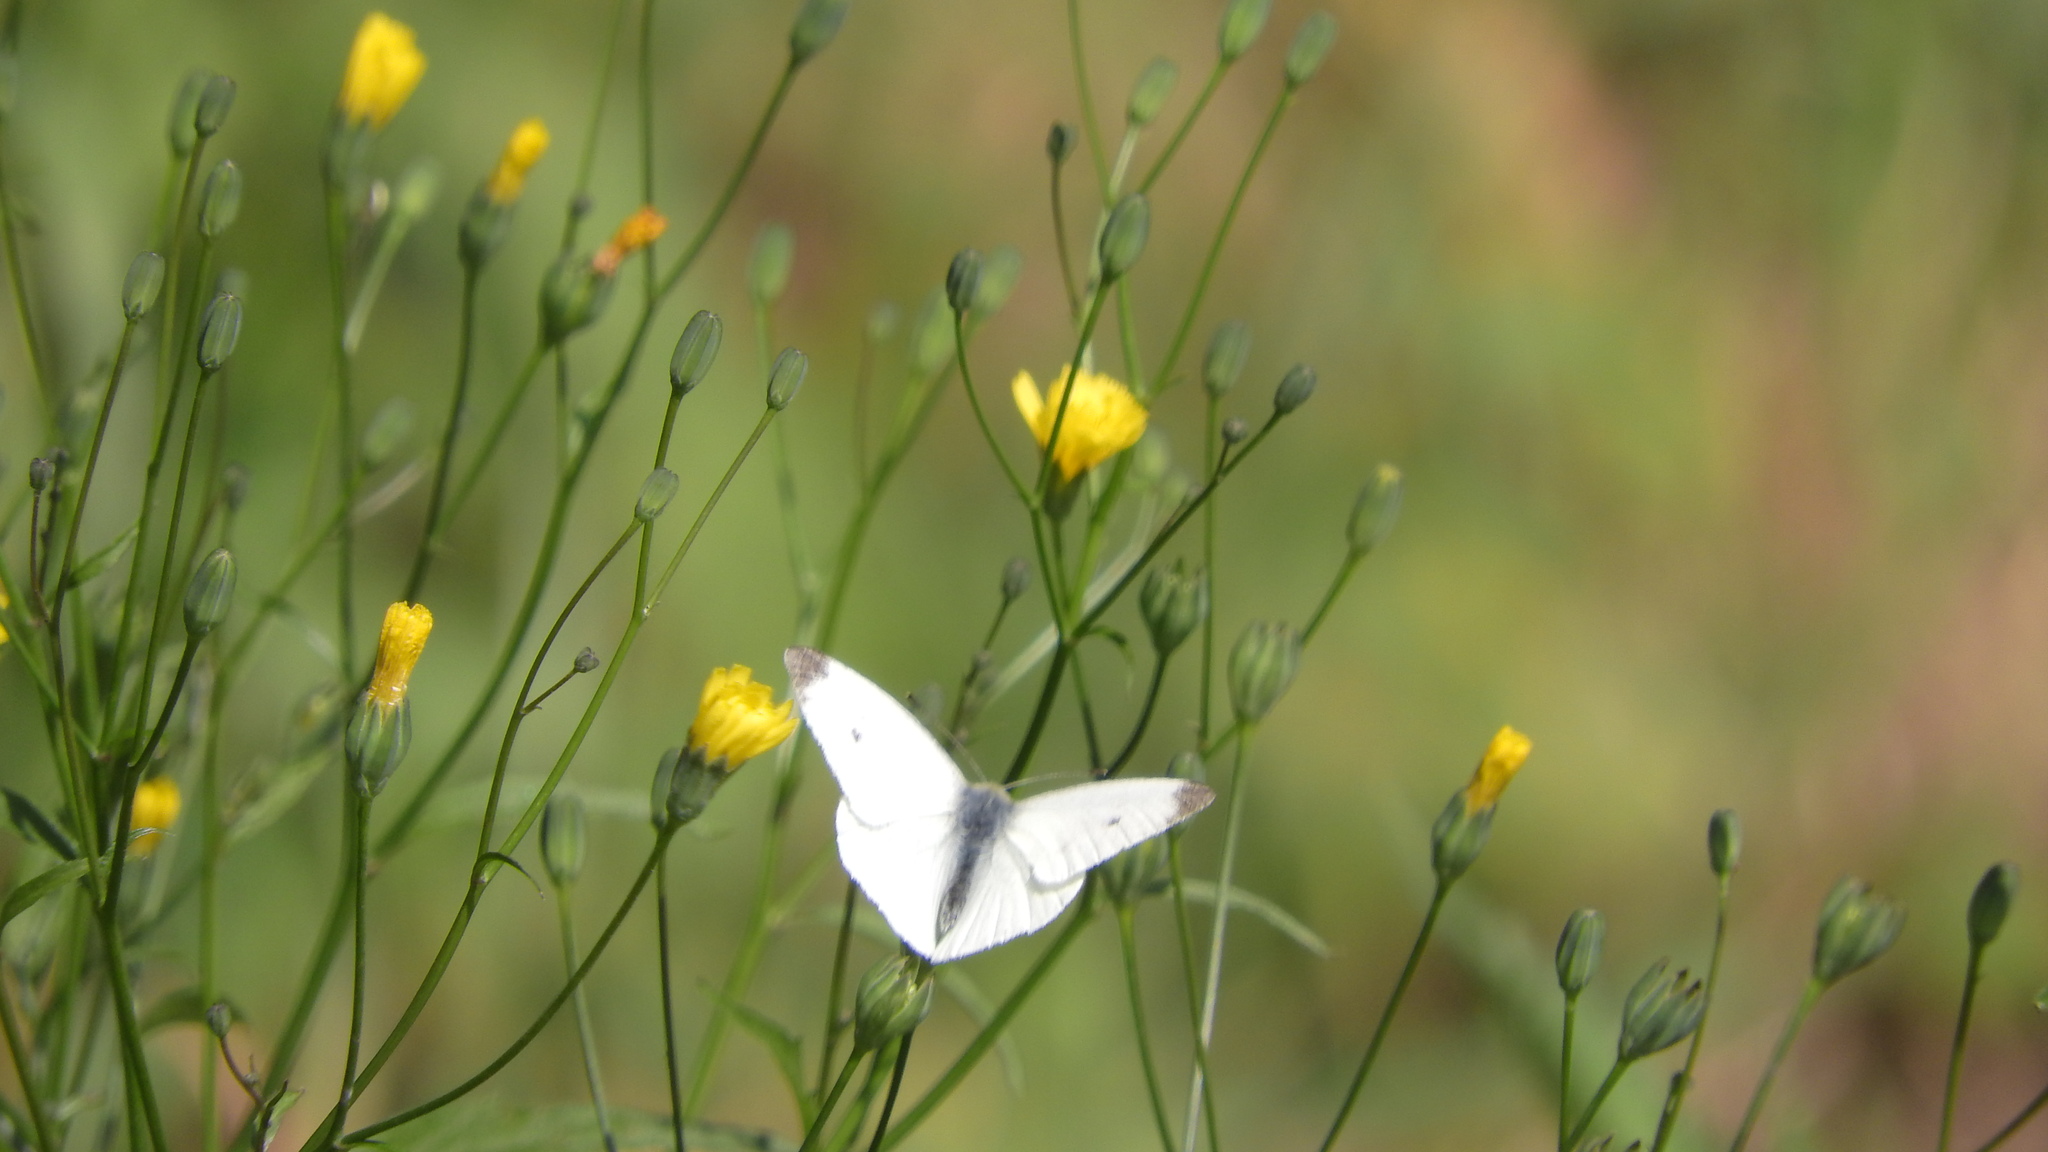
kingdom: Animalia
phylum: Arthropoda
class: Insecta
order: Lepidoptera
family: Pieridae
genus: Pieris
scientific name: Pieris rapae
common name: Small white
